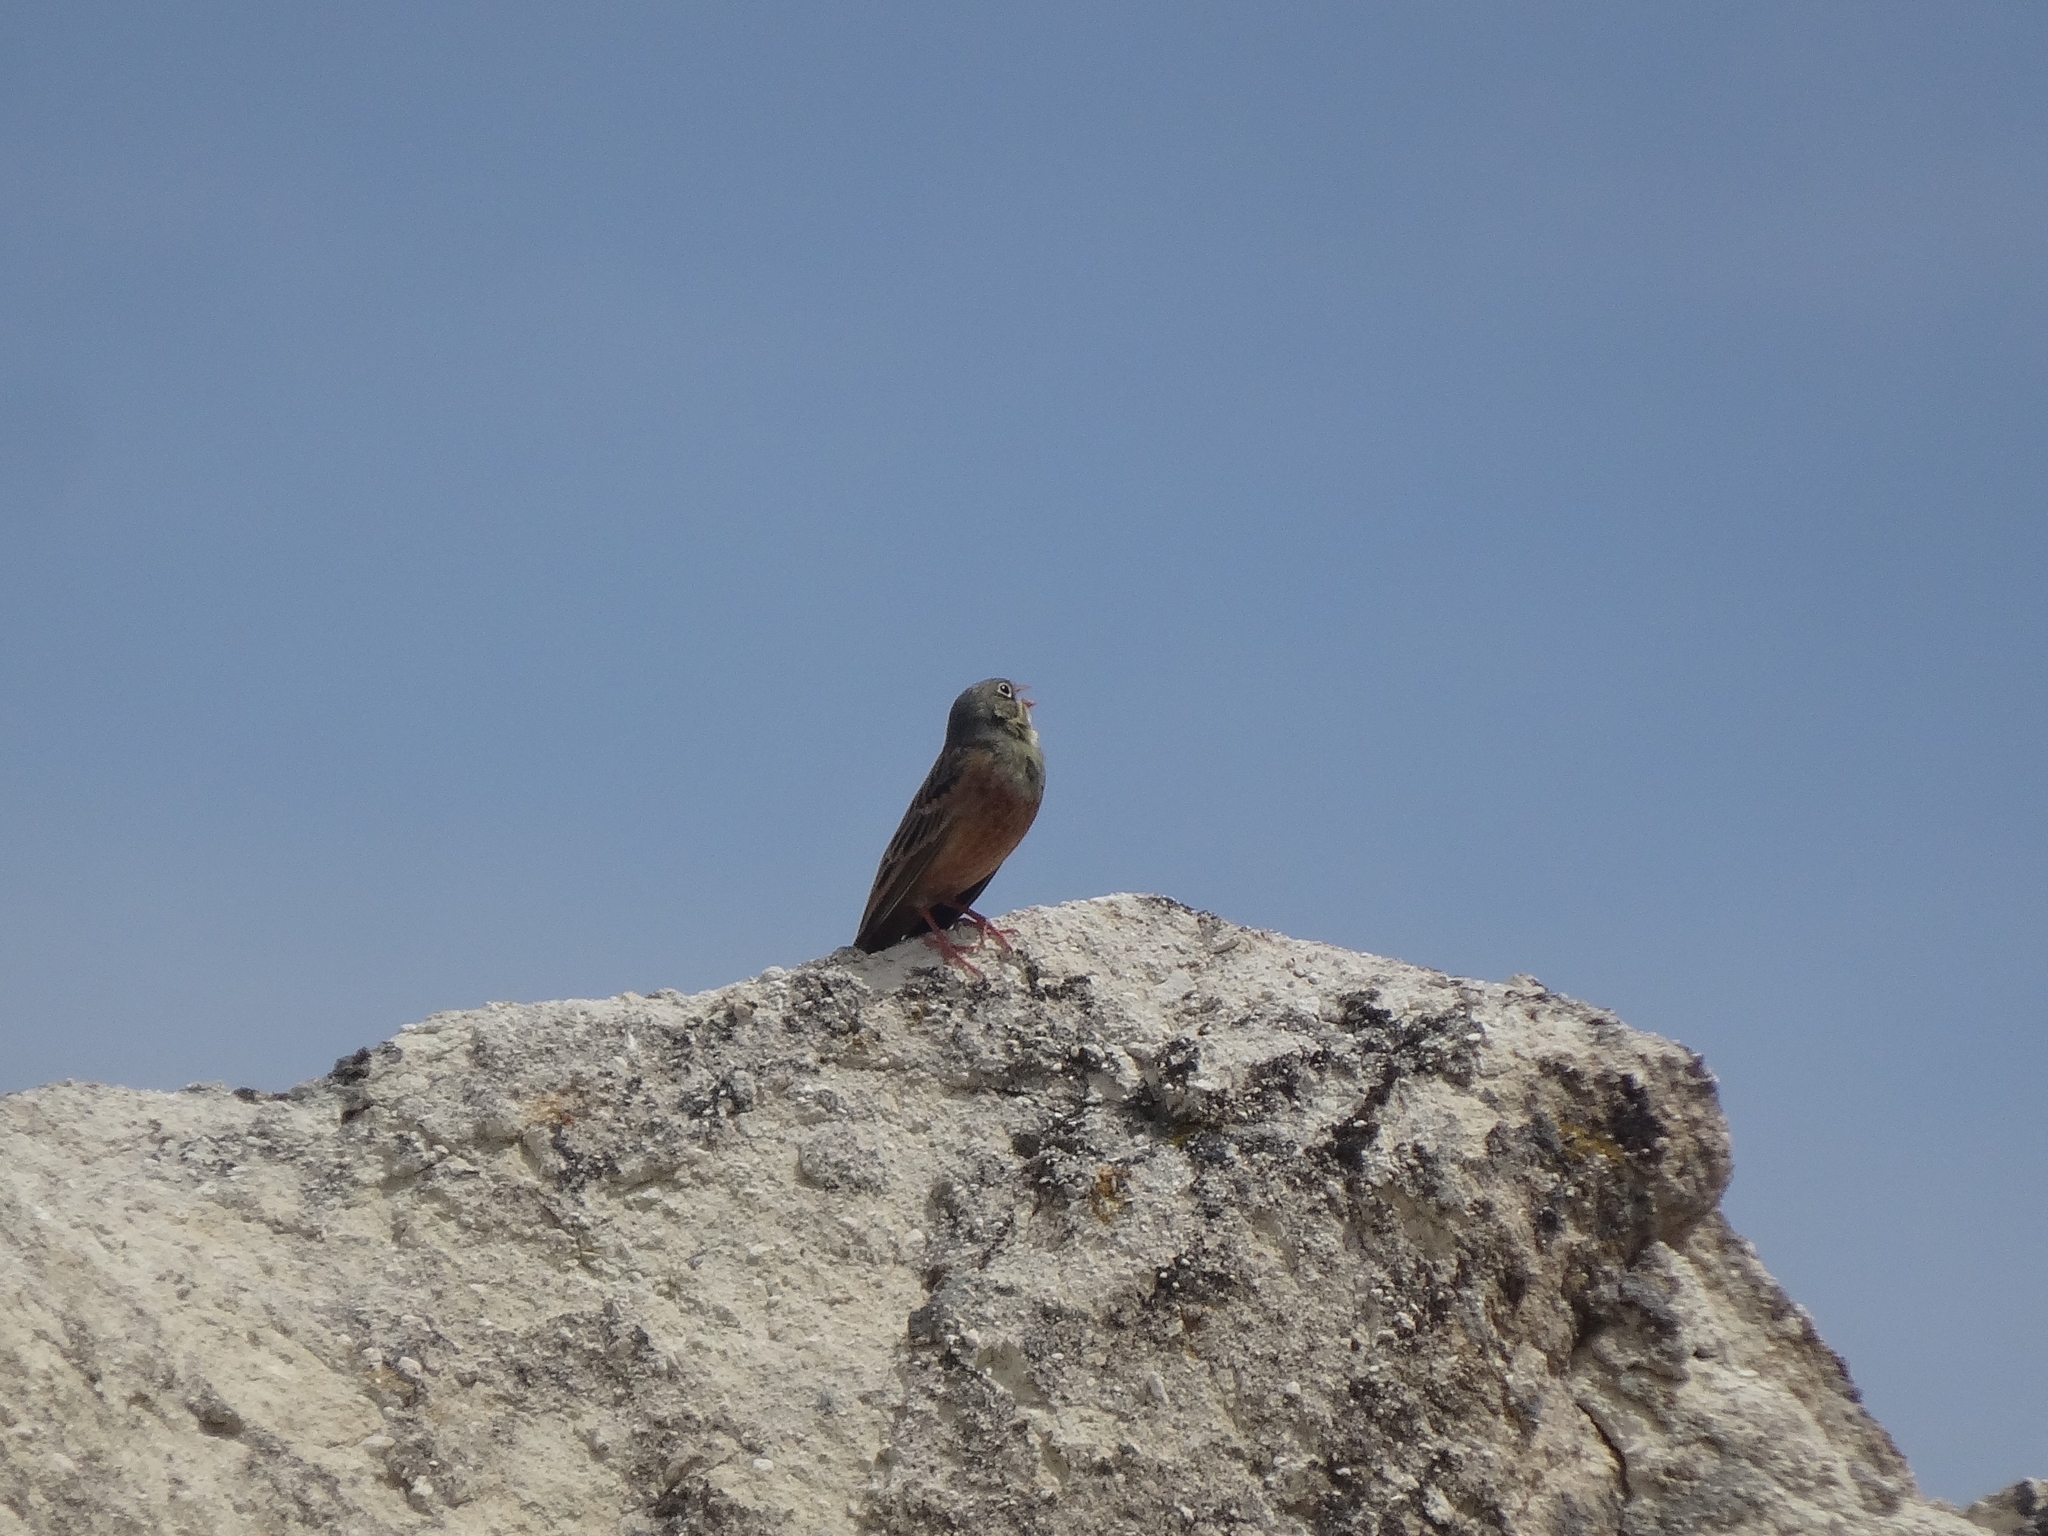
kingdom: Animalia
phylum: Chordata
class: Aves
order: Passeriformes
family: Emberizidae
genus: Emberiza
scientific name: Emberiza hortulana
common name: Ortolan bunting
